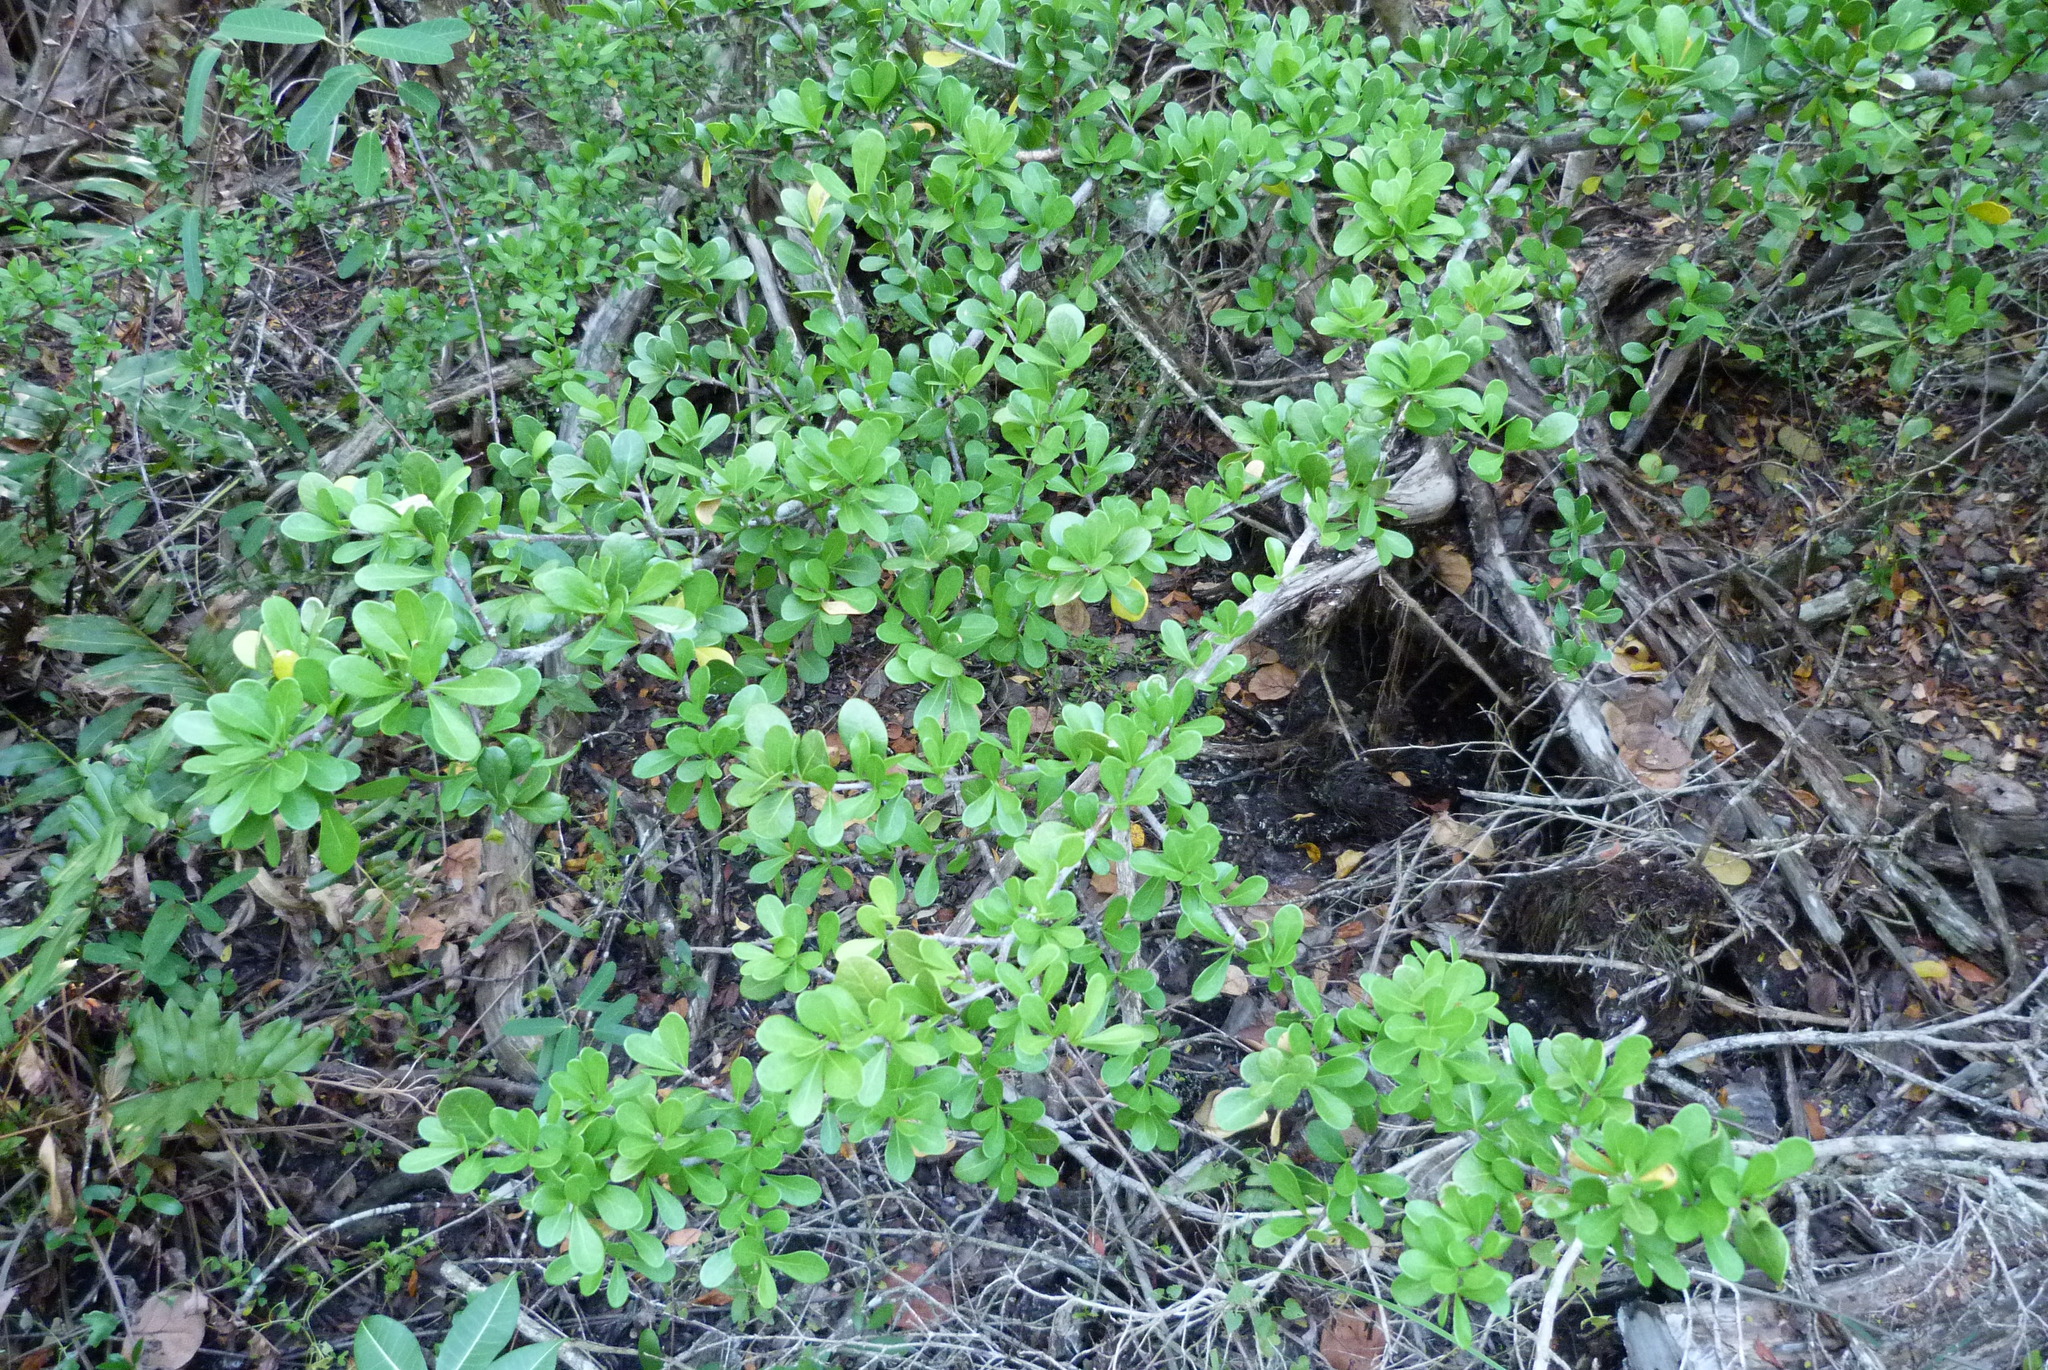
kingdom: Plantae
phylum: Tracheophyta
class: Magnoliopsida
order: Gentianales
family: Rubiaceae
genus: Randia
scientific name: Randia aculeata
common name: Inkberry
